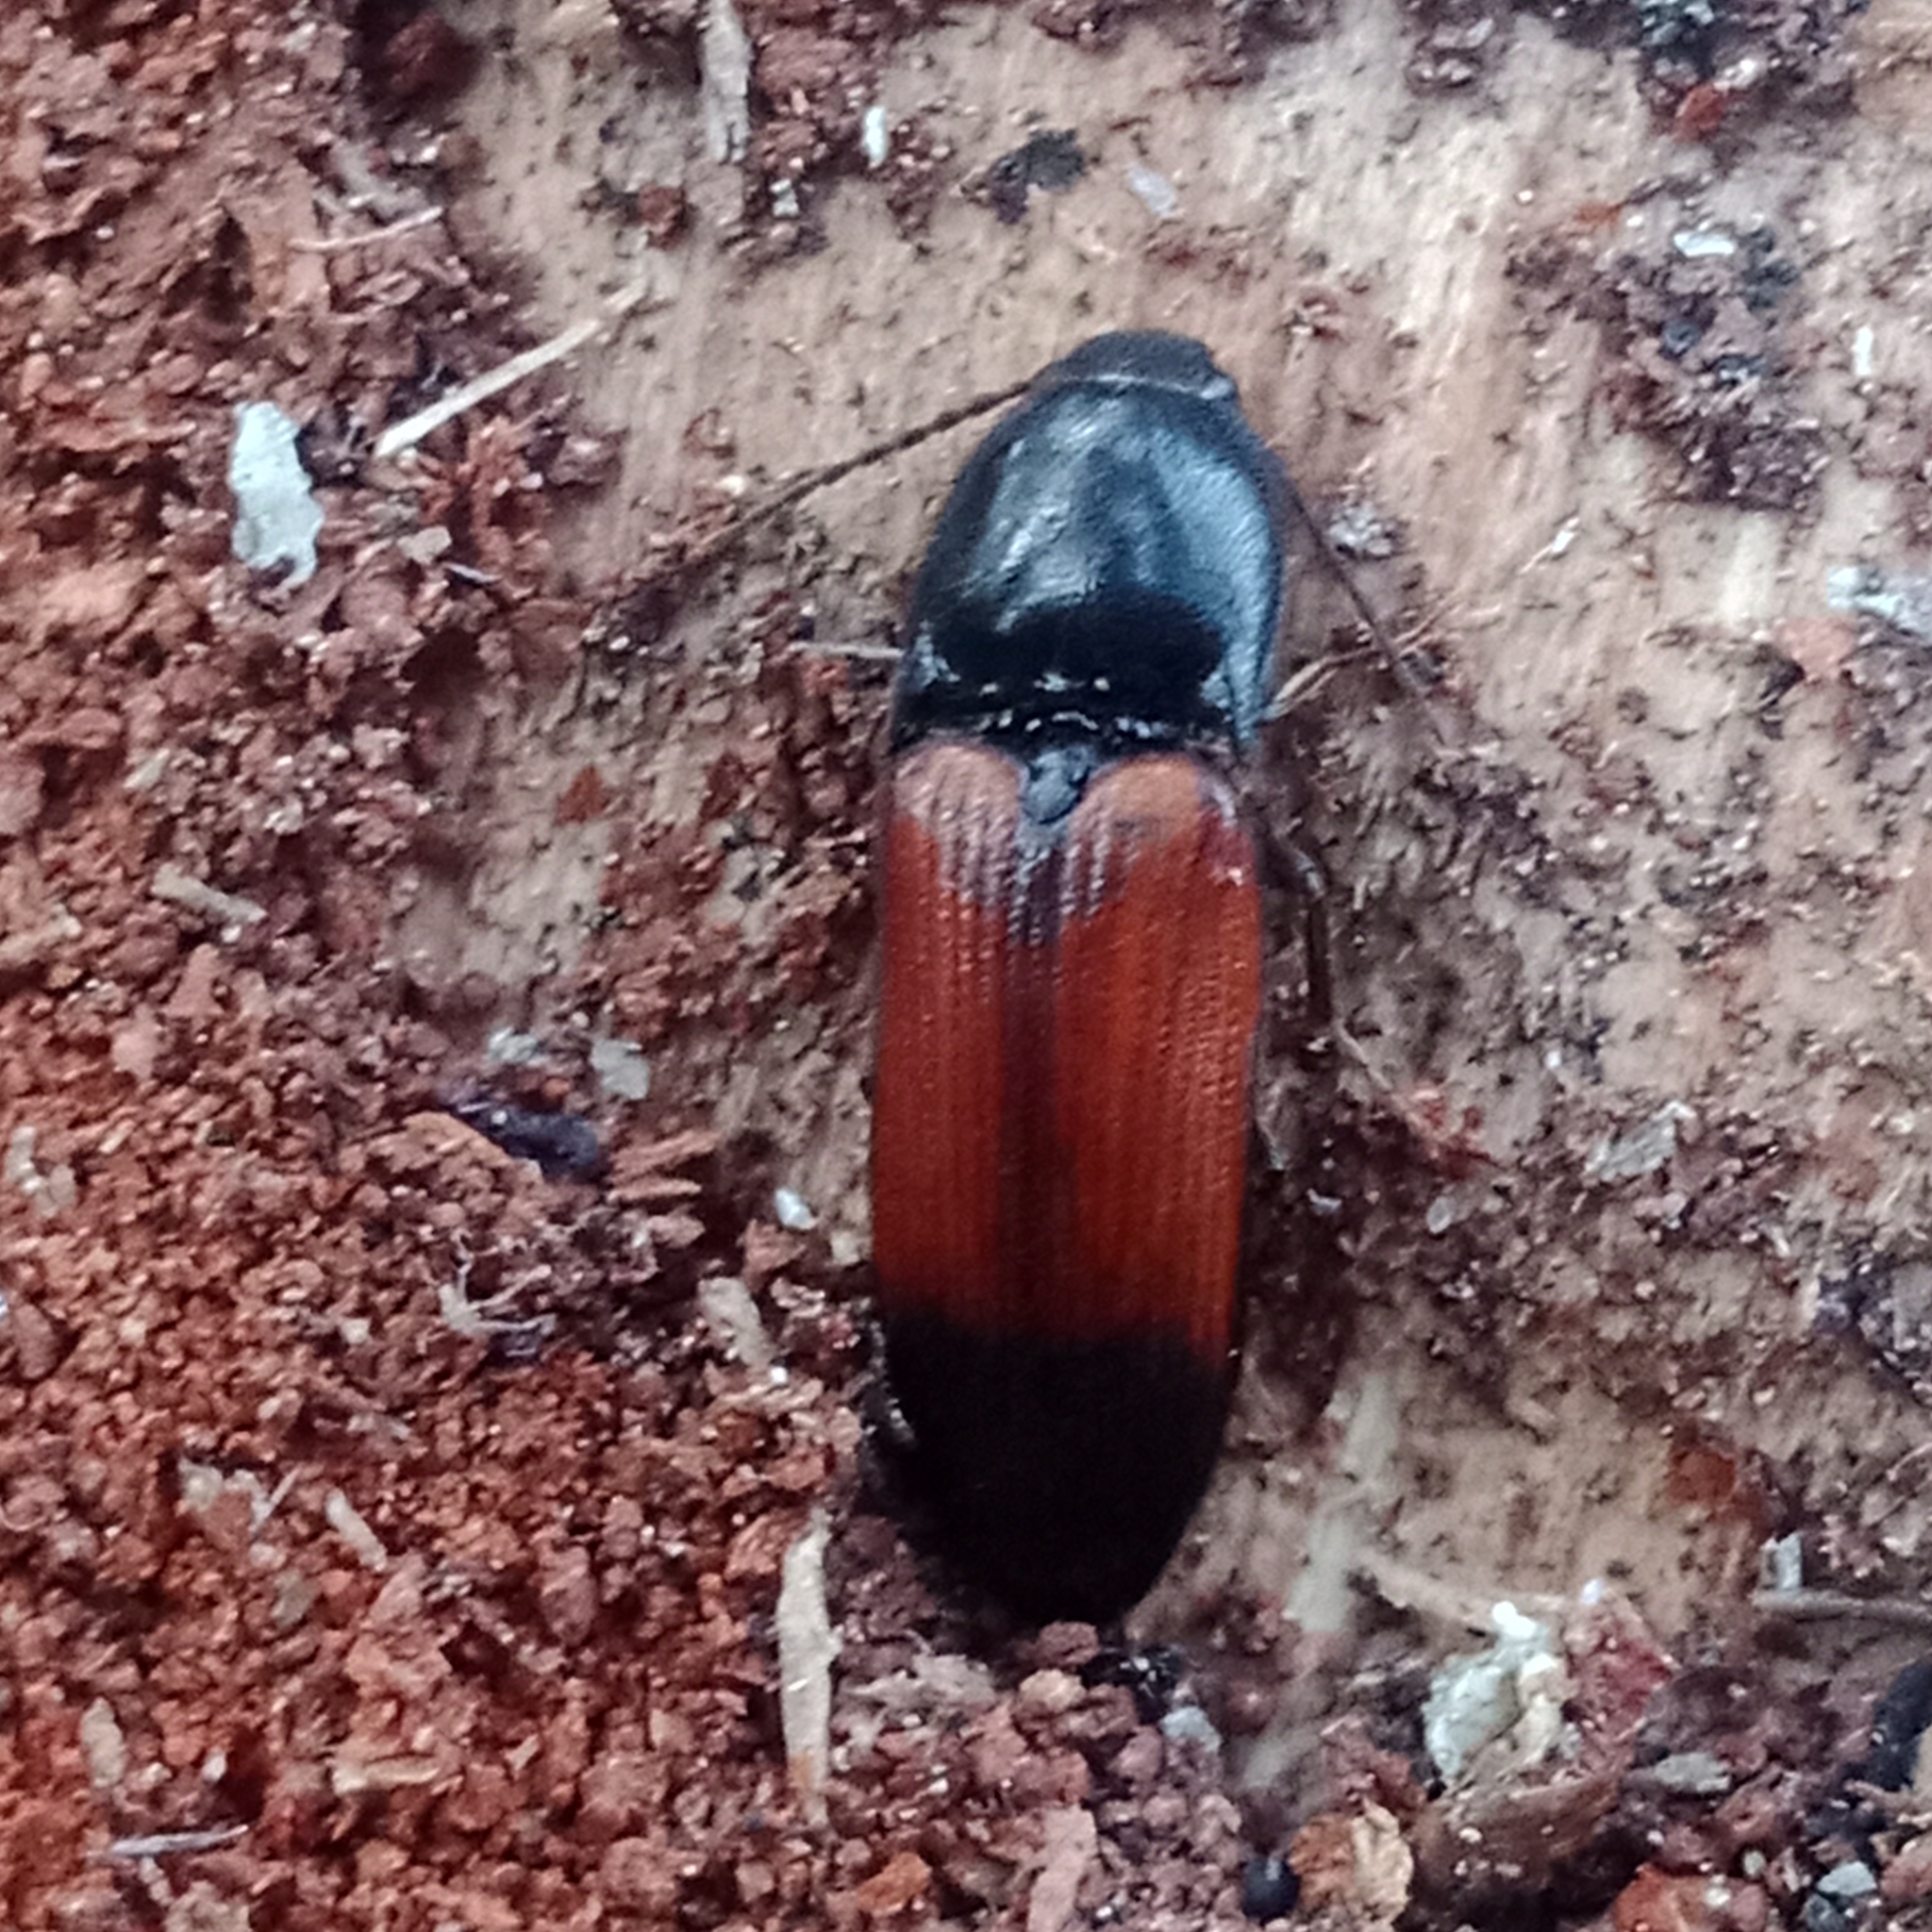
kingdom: Animalia
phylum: Arthropoda
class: Insecta
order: Coleoptera
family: Elateridae
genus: Ampedus
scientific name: Ampedus balteatus
